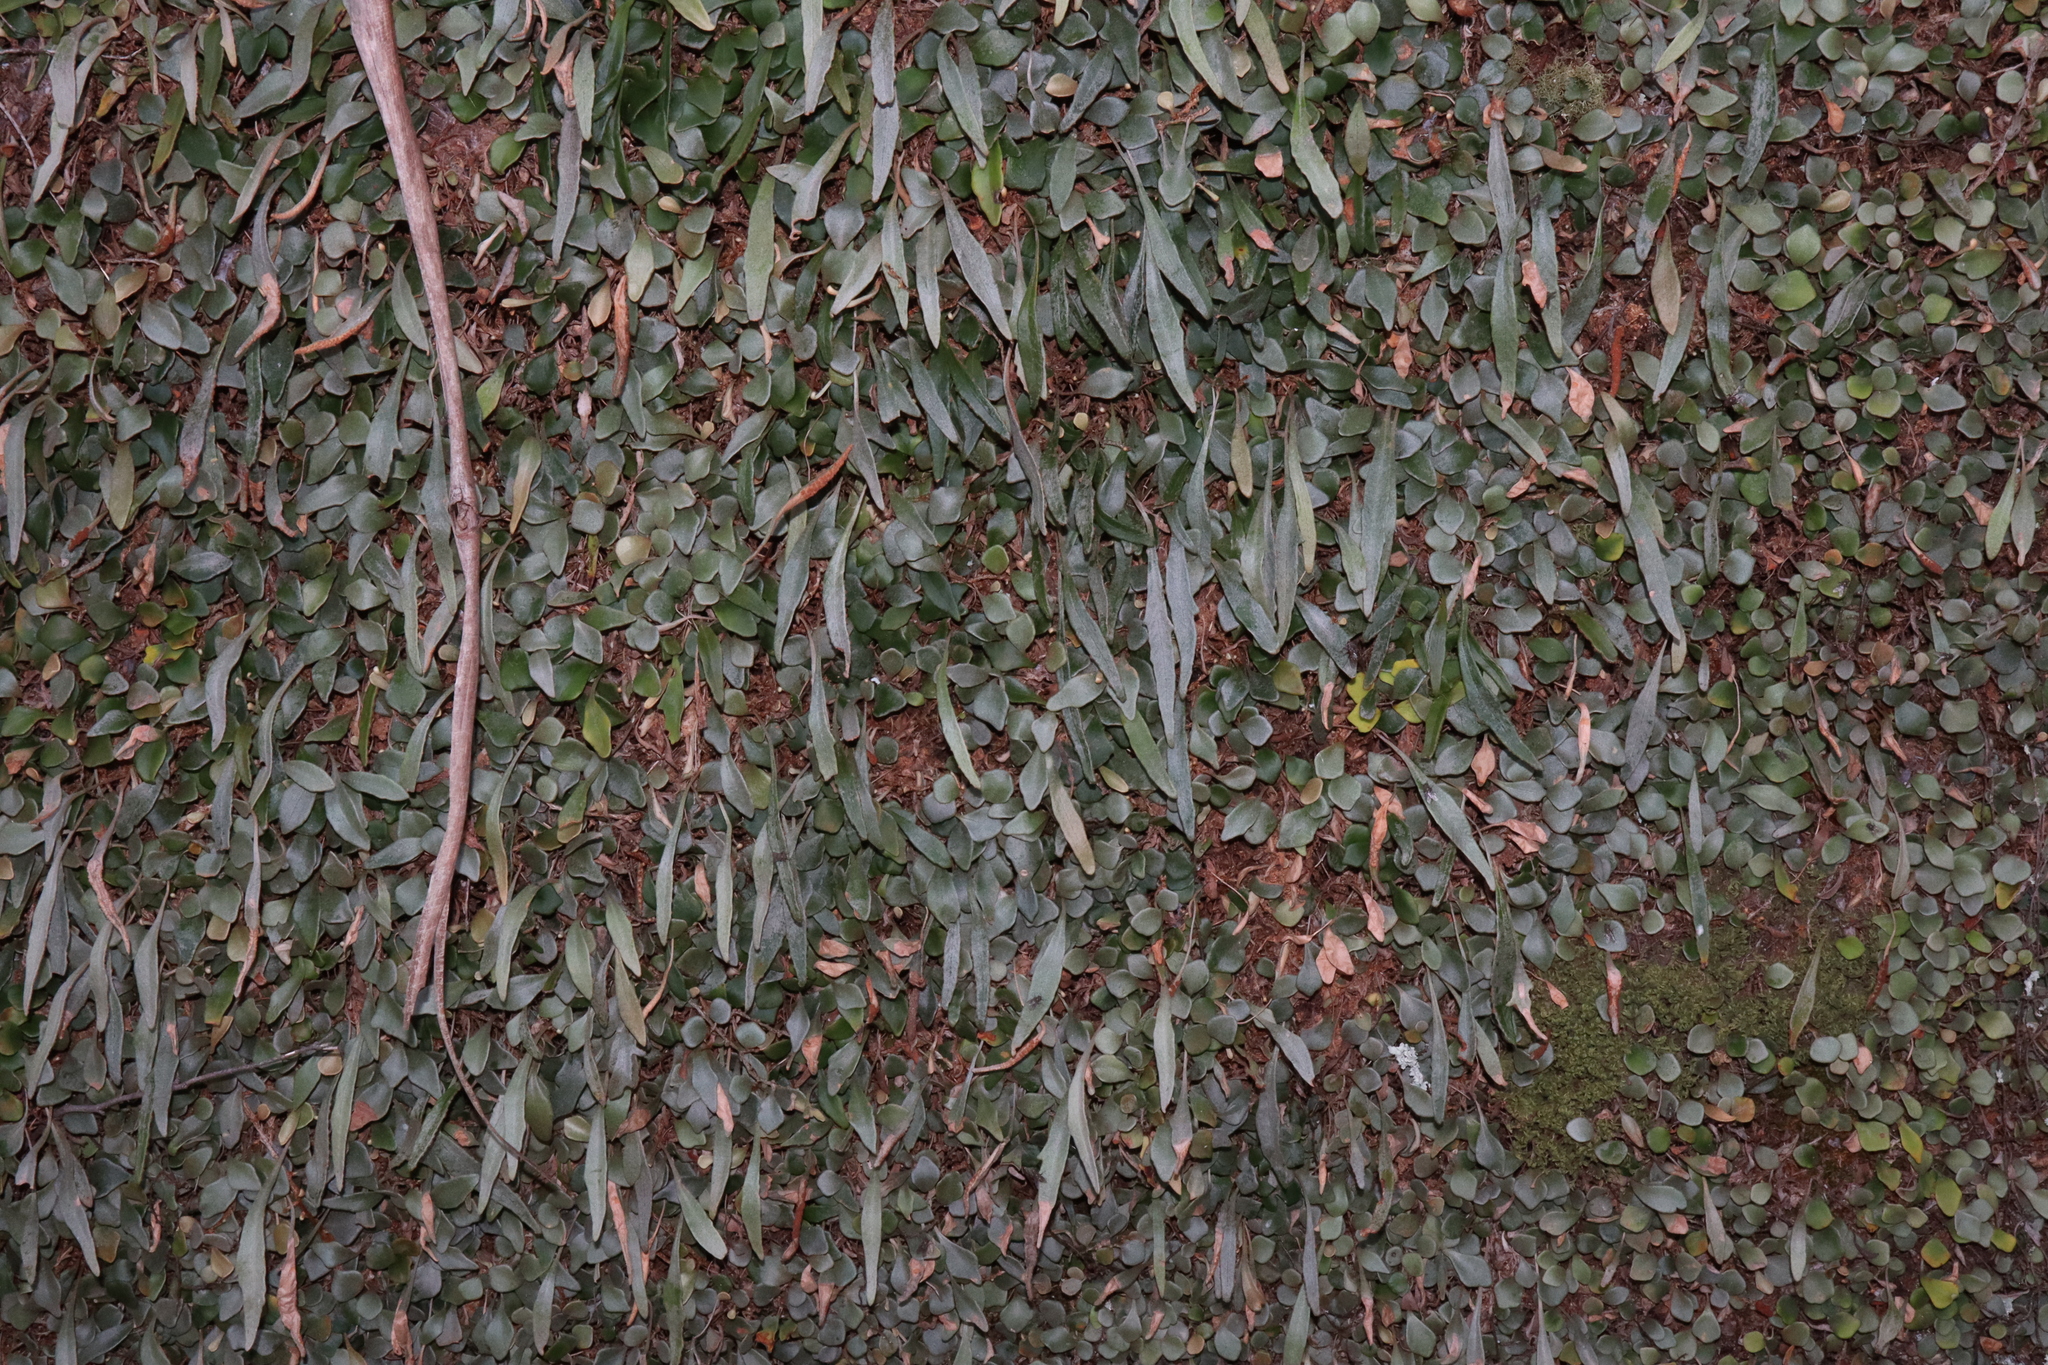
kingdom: Plantae
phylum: Tracheophyta
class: Polypodiopsida
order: Polypodiales
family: Polypodiaceae
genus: Pyrrosia
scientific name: Pyrrosia rupestris
